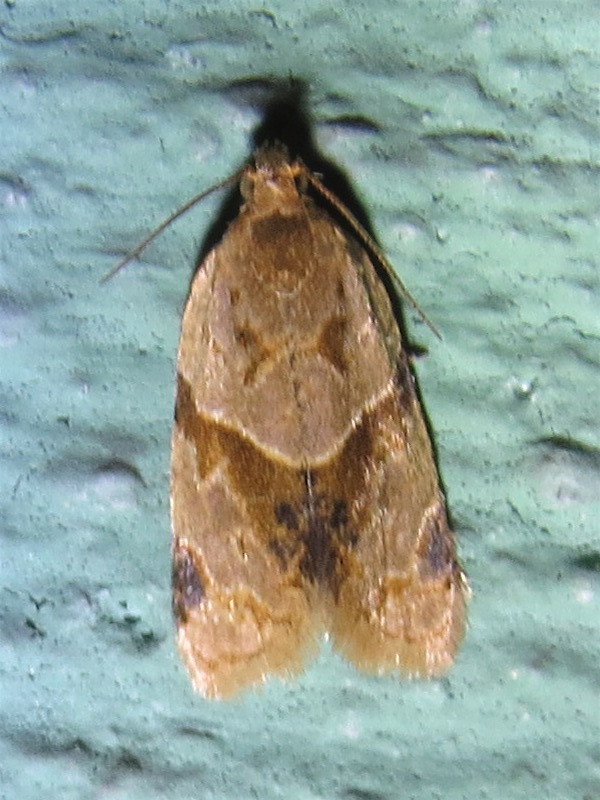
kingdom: Animalia
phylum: Arthropoda
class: Insecta
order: Lepidoptera
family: Tortricidae
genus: Clepsis
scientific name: Clepsis peritana
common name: Garden tortrix
